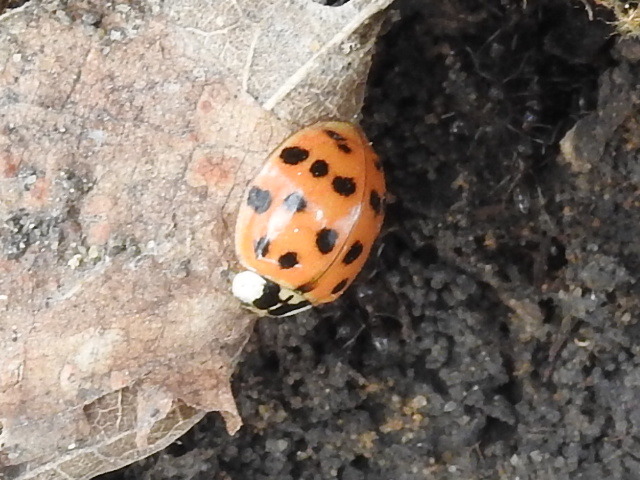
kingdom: Animalia
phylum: Arthropoda
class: Insecta
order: Coleoptera
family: Coccinellidae
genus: Harmonia
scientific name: Harmonia axyridis
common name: Harlequin ladybird
